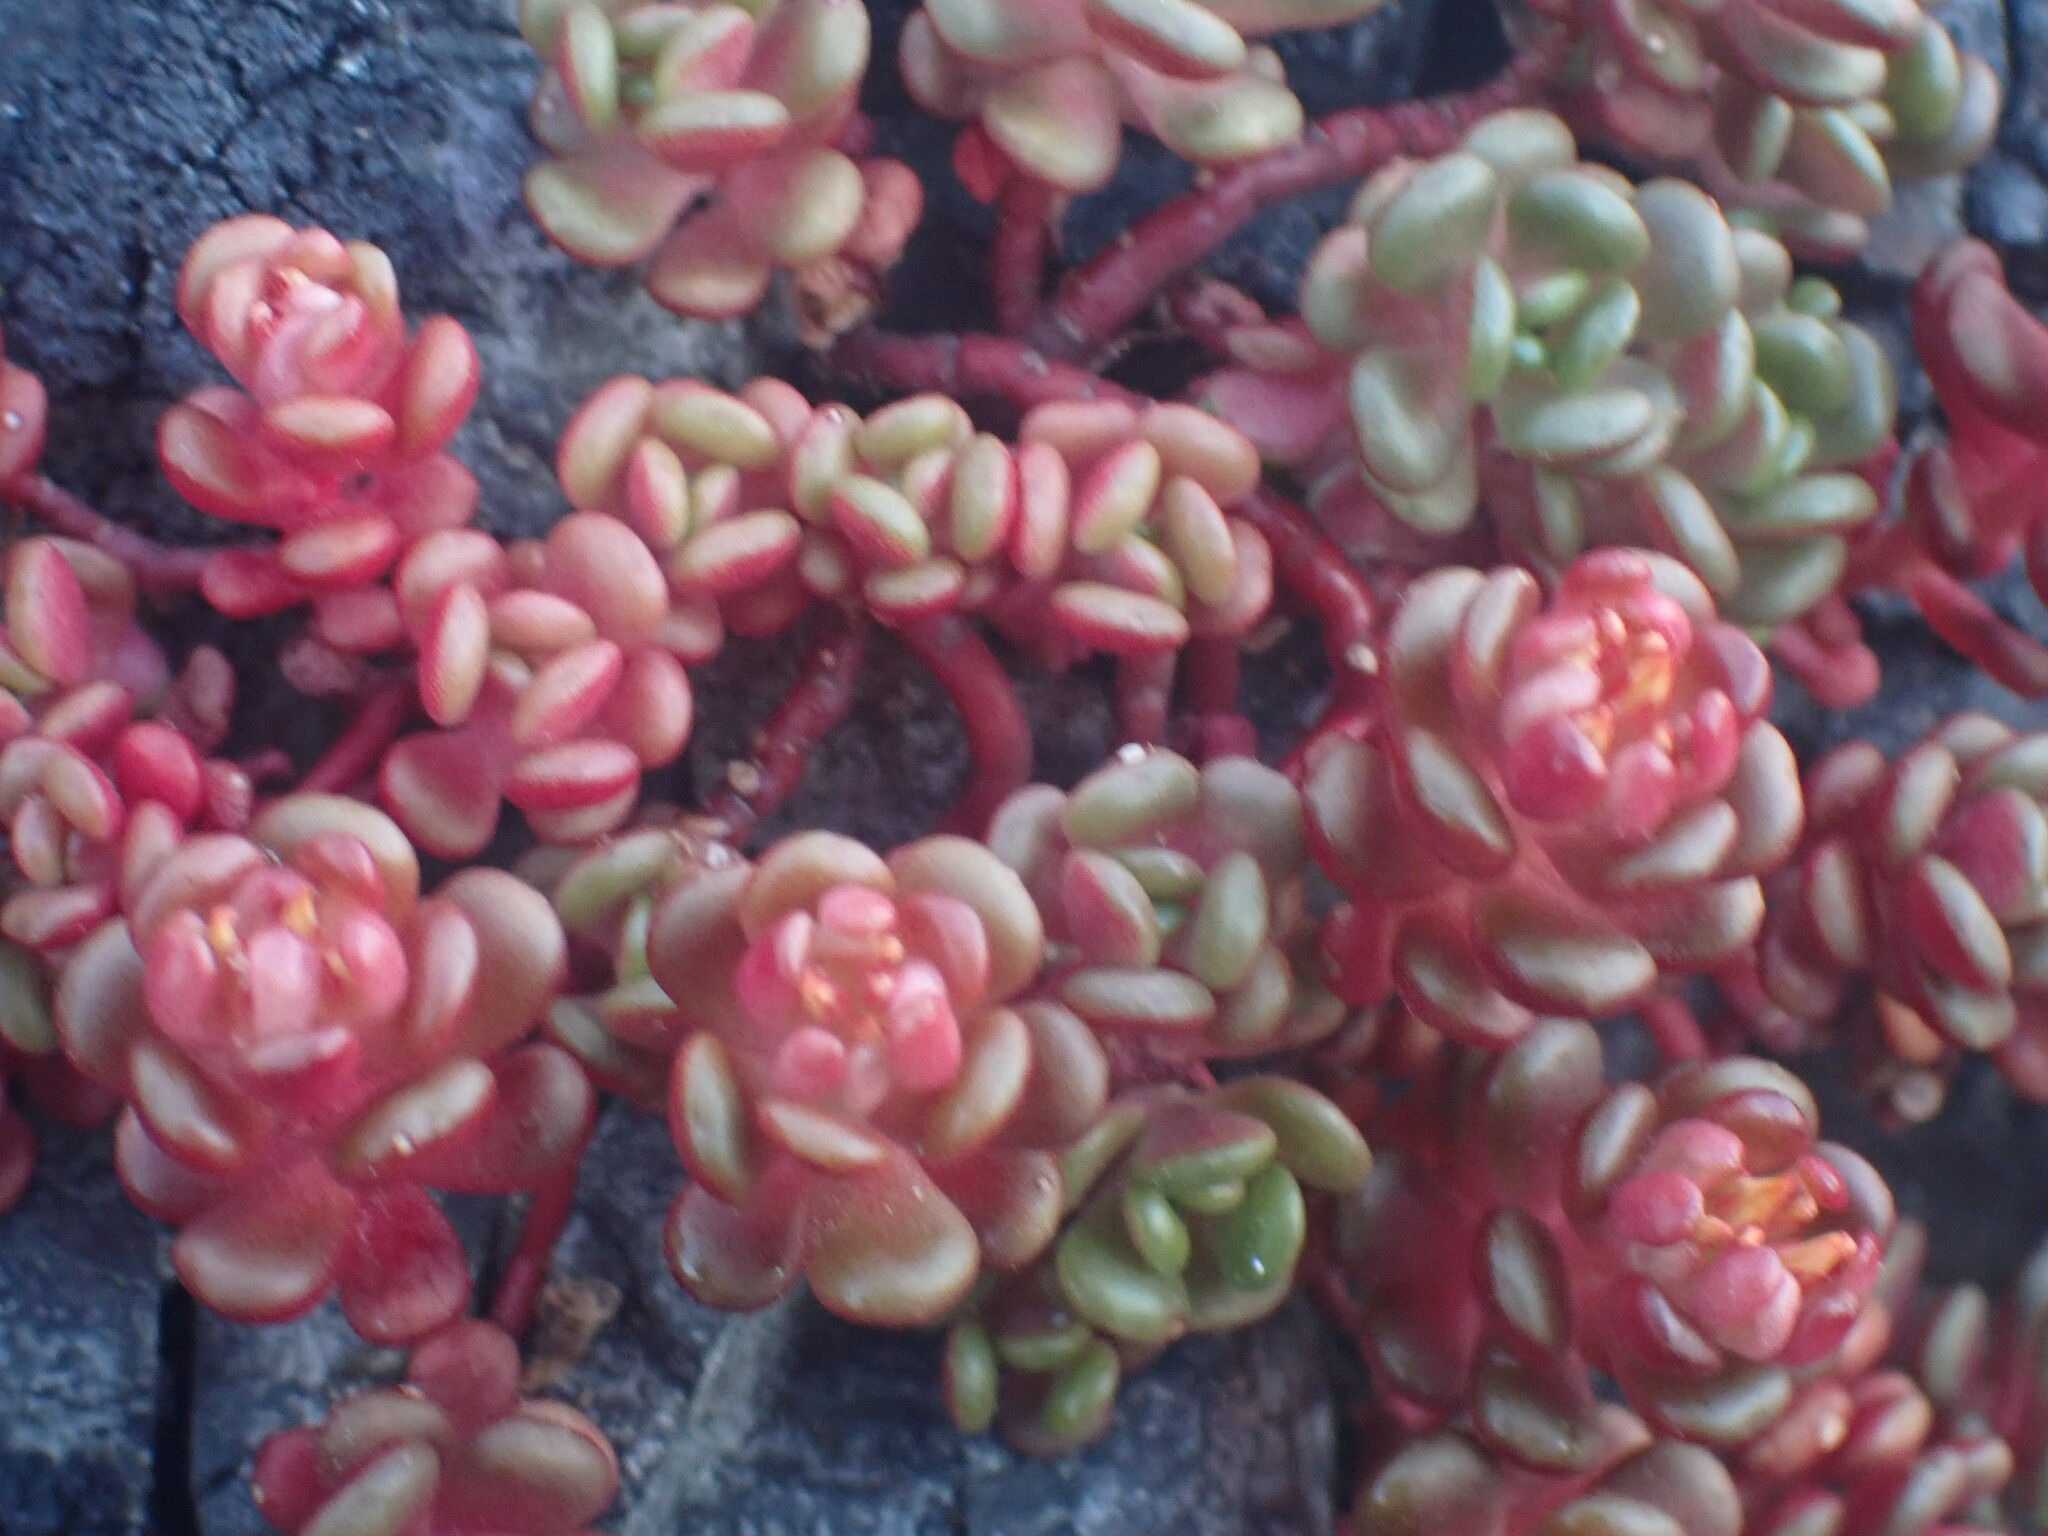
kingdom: Plantae
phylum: Tracheophyta
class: Magnoliopsida
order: Saxifragales
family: Crassulaceae
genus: Sedum
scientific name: Sedum oreganum
